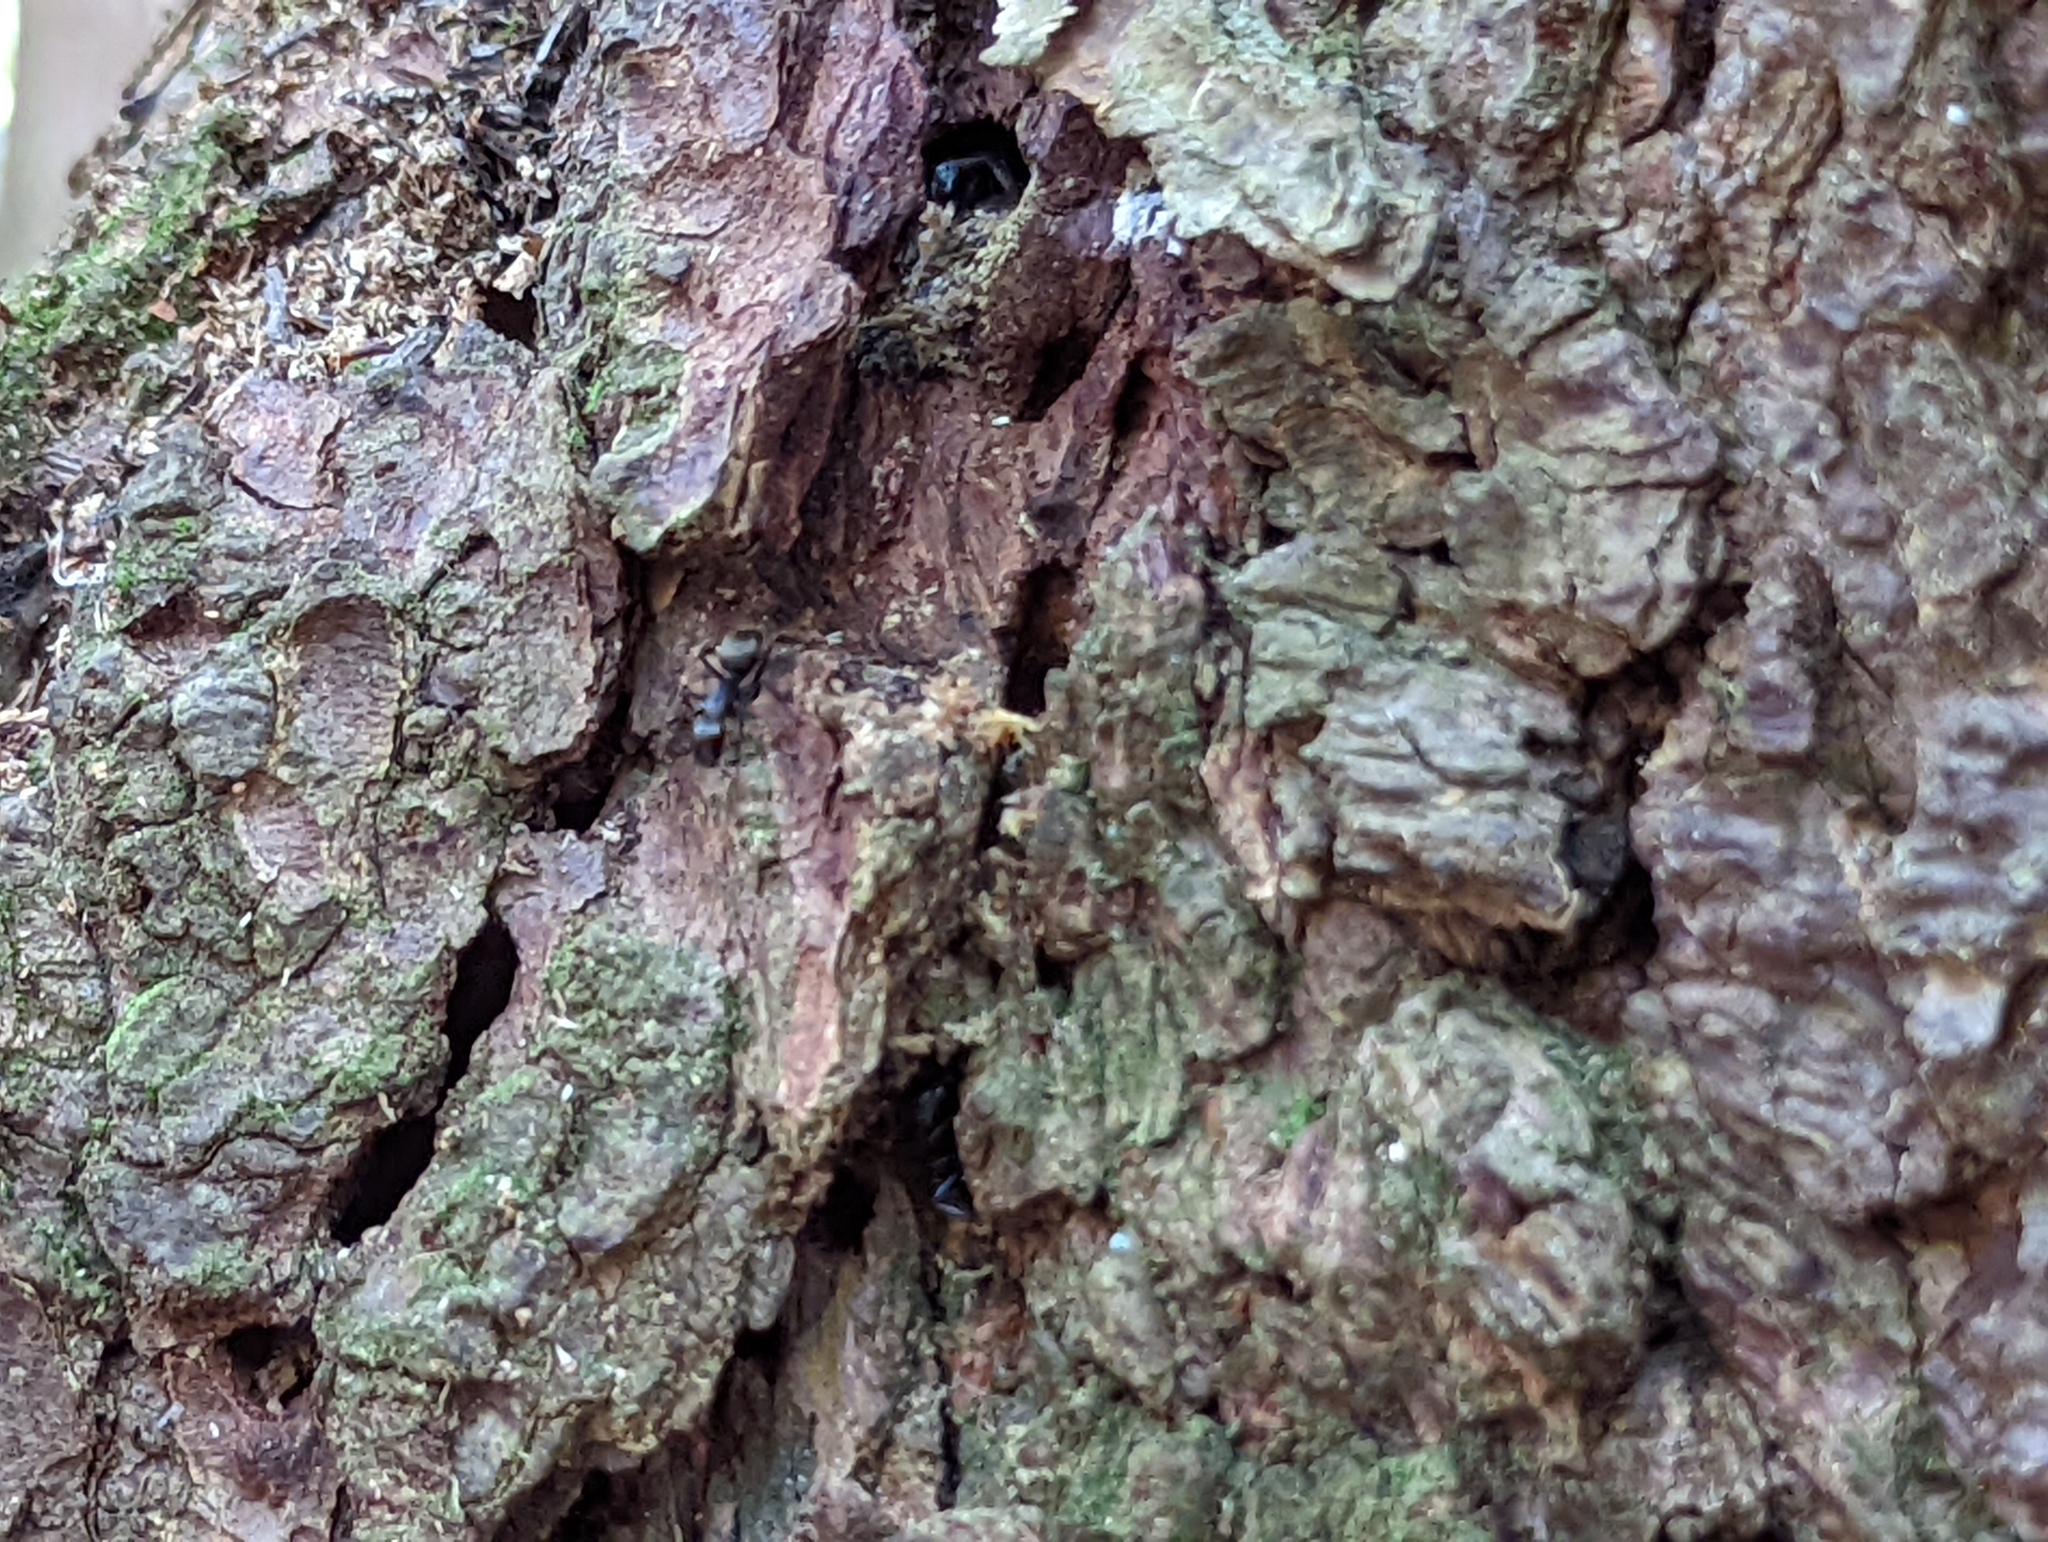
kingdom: Animalia
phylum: Arthropoda
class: Insecta
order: Hymenoptera
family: Formicidae
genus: Camponotus
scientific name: Camponotus pennsylvanicus
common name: Black carpenter ant
